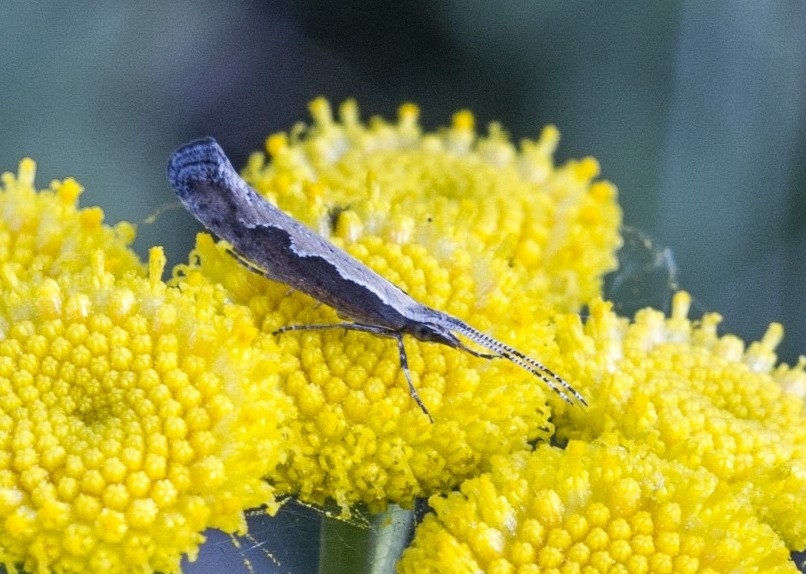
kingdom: Animalia
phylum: Arthropoda
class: Insecta
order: Lepidoptera
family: Plutellidae
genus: Plutella
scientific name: Plutella xylostella
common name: Diamond-back moth
